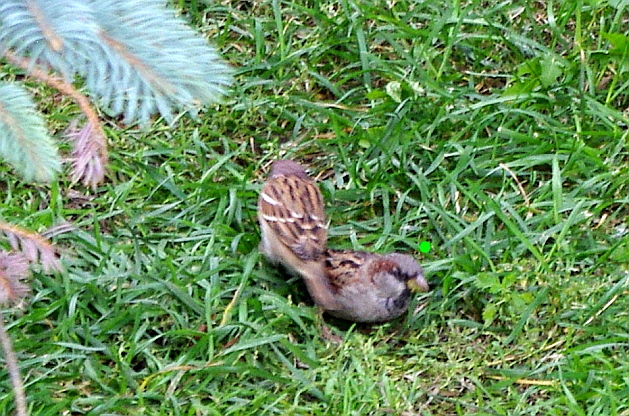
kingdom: Animalia
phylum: Chordata
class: Aves
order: Passeriformes
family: Passeridae
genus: Passer
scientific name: Passer domesticus
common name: House sparrow
